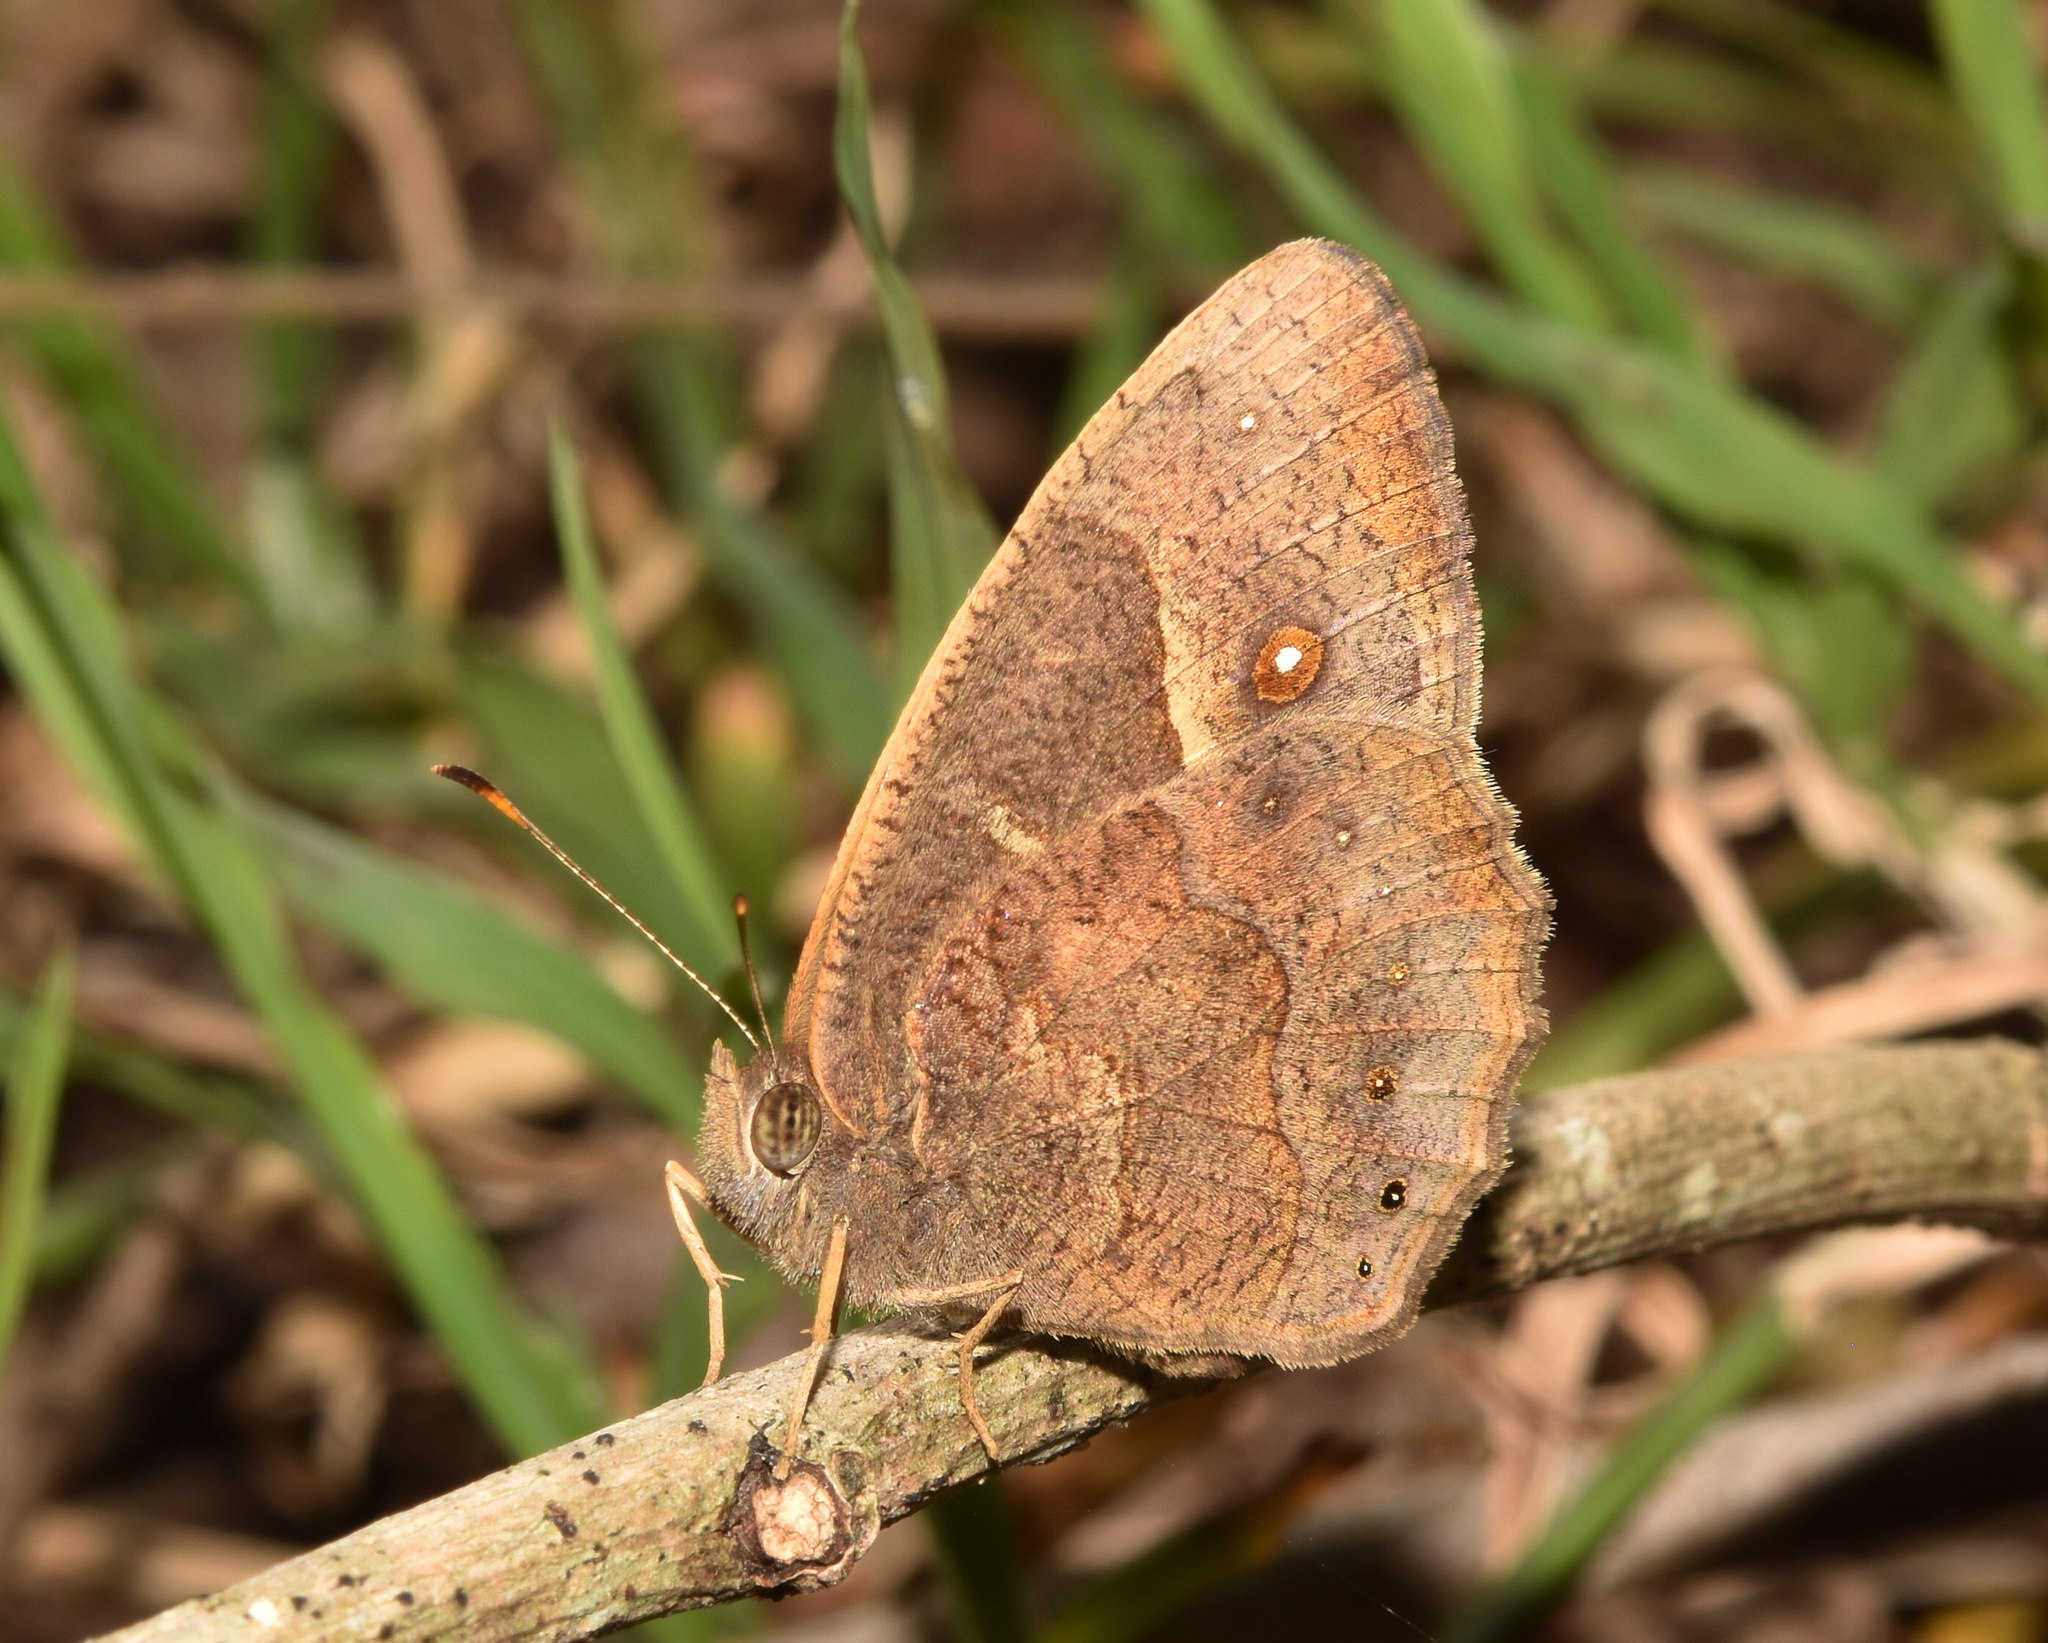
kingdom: Animalia
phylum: Arthropoda
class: Insecta
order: Lepidoptera
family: Nymphalidae
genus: Mycalesis
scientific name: Mycalesis anynana
